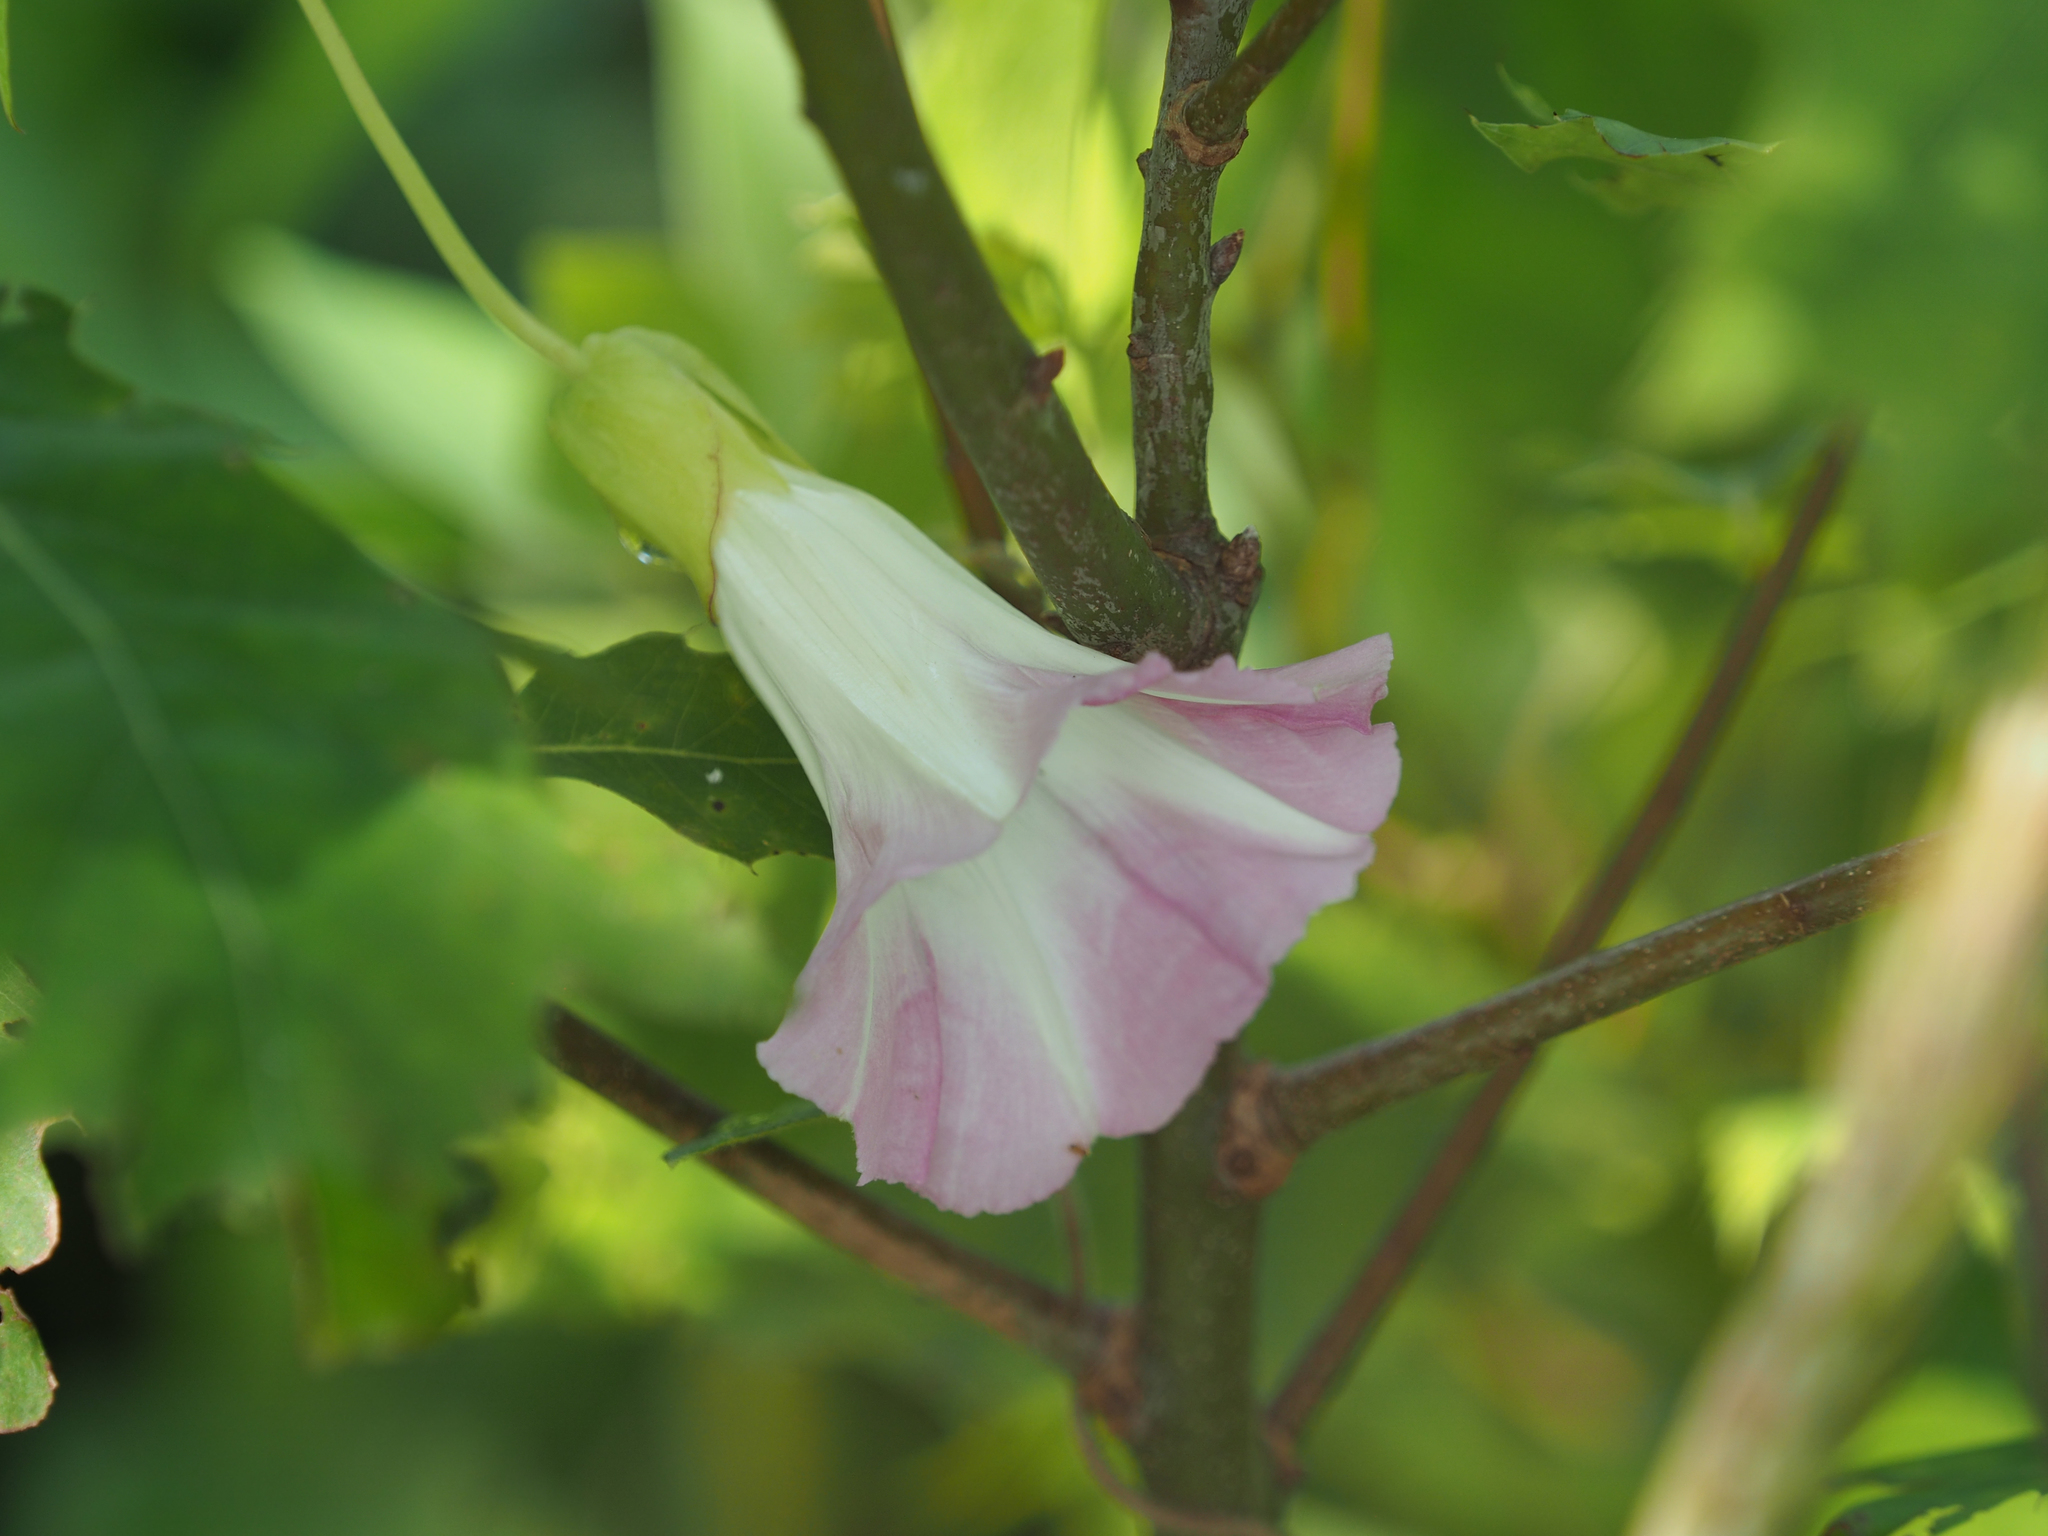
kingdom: Plantae
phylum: Tracheophyta
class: Magnoliopsida
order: Solanales
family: Convolvulaceae
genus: Calystegia
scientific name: Calystegia sepium
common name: Hedge bindweed
